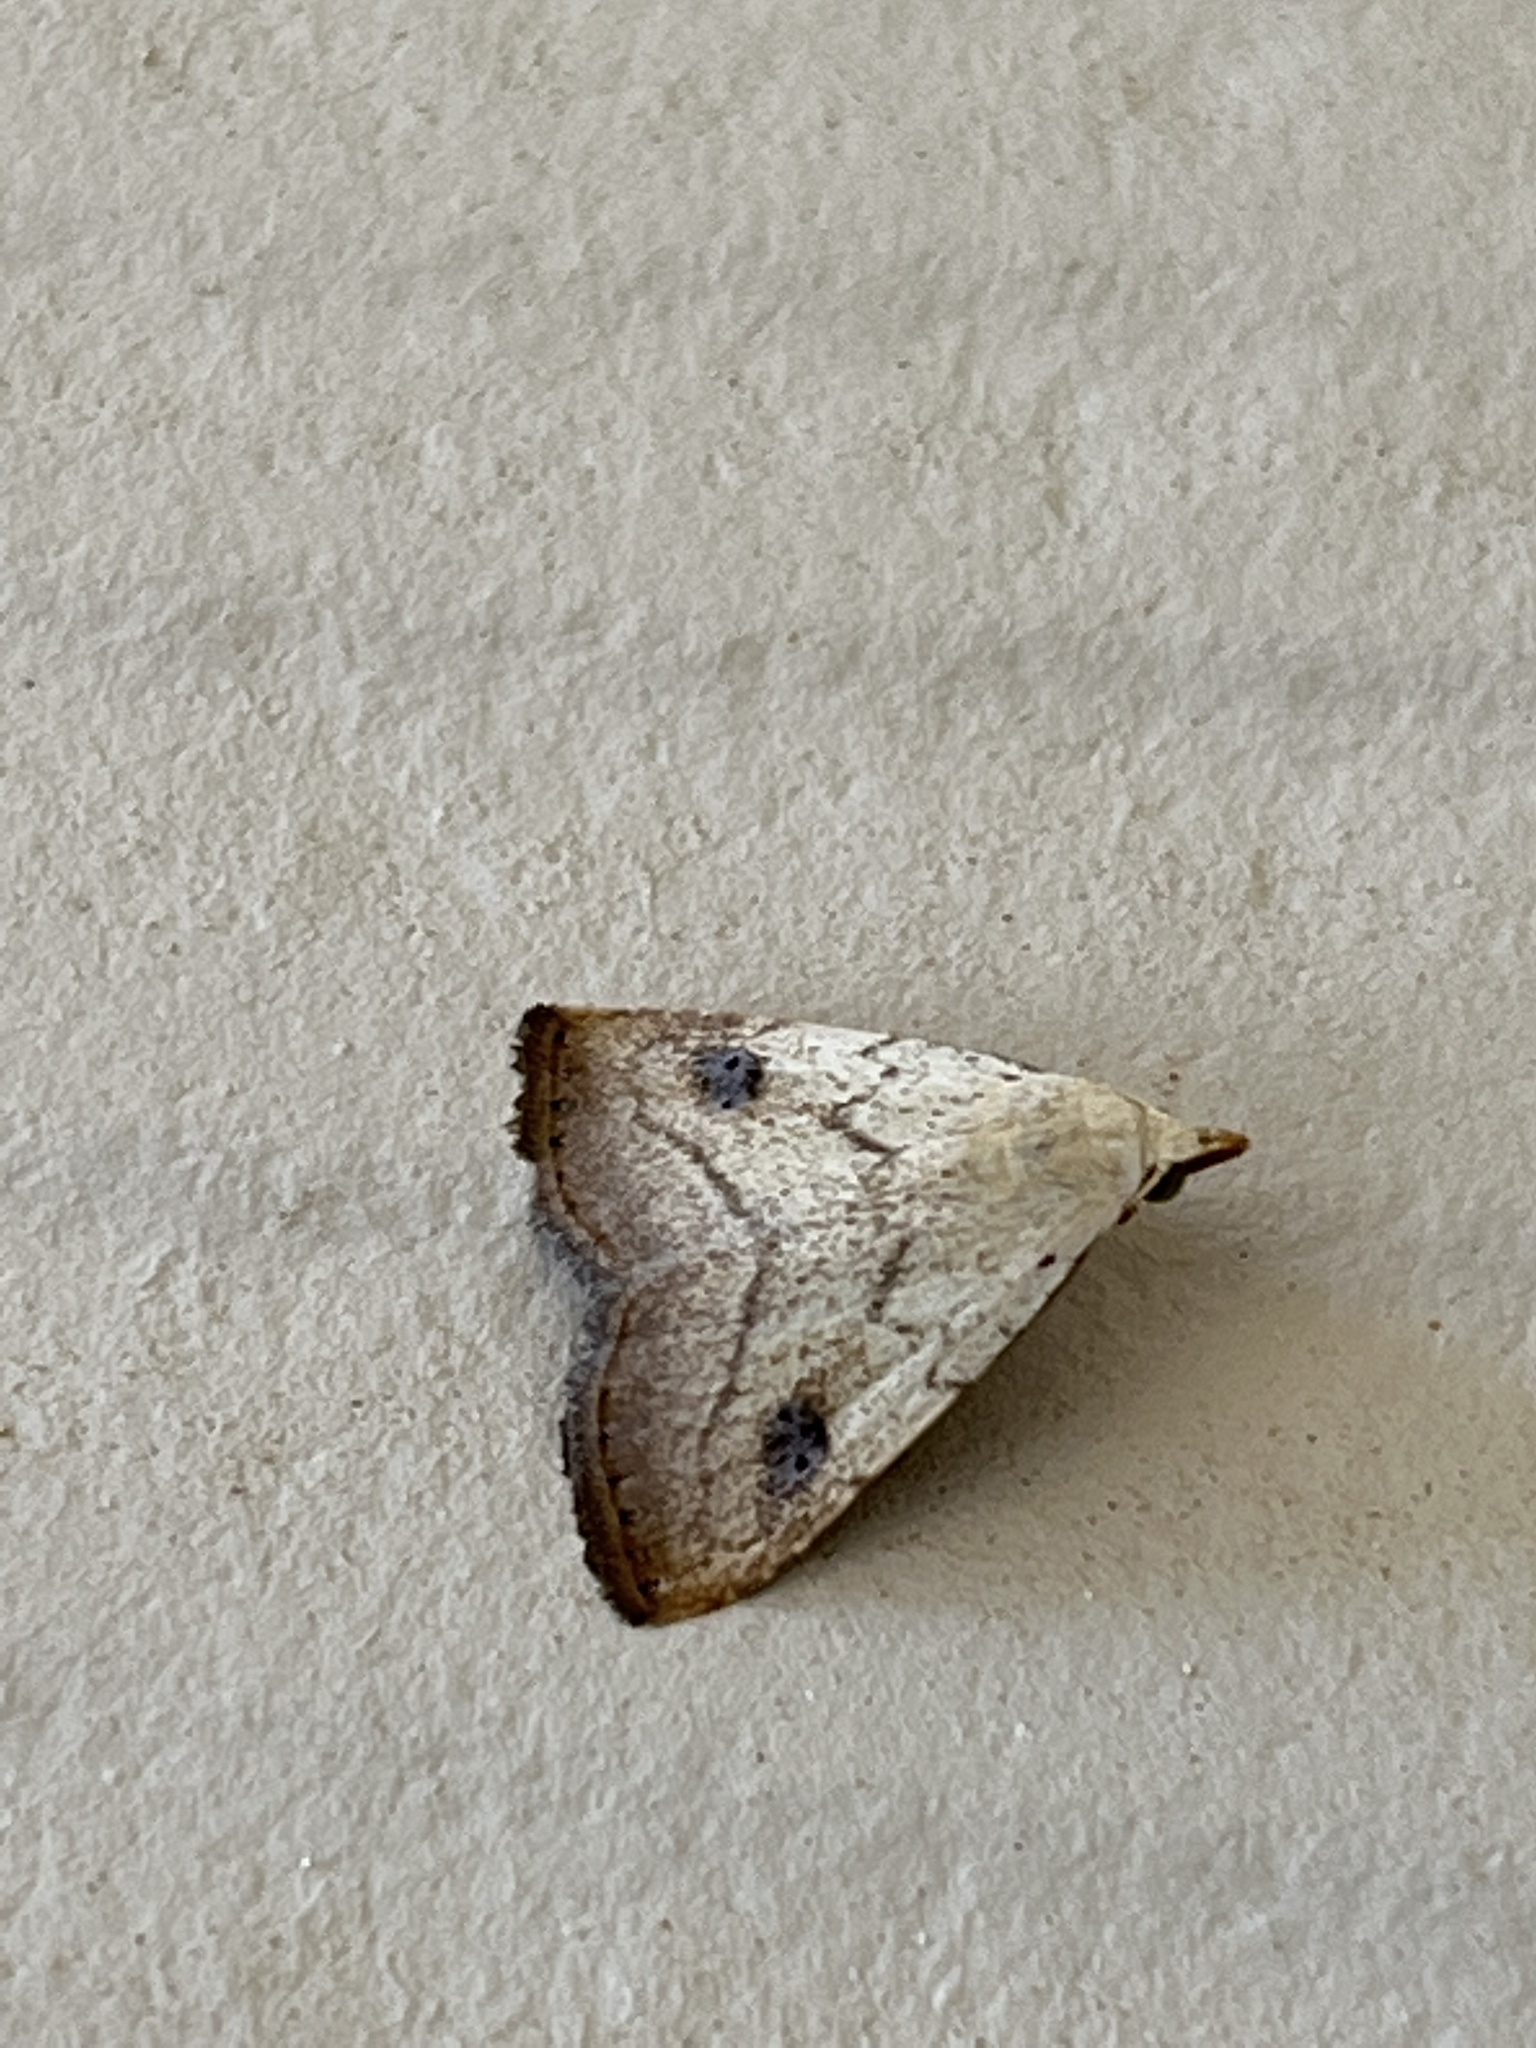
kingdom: Animalia
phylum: Arthropoda
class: Insecta
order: Lepidoptera
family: Erebidae
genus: Rivula
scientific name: Rivula propinqualis
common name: Spotted grass moth
